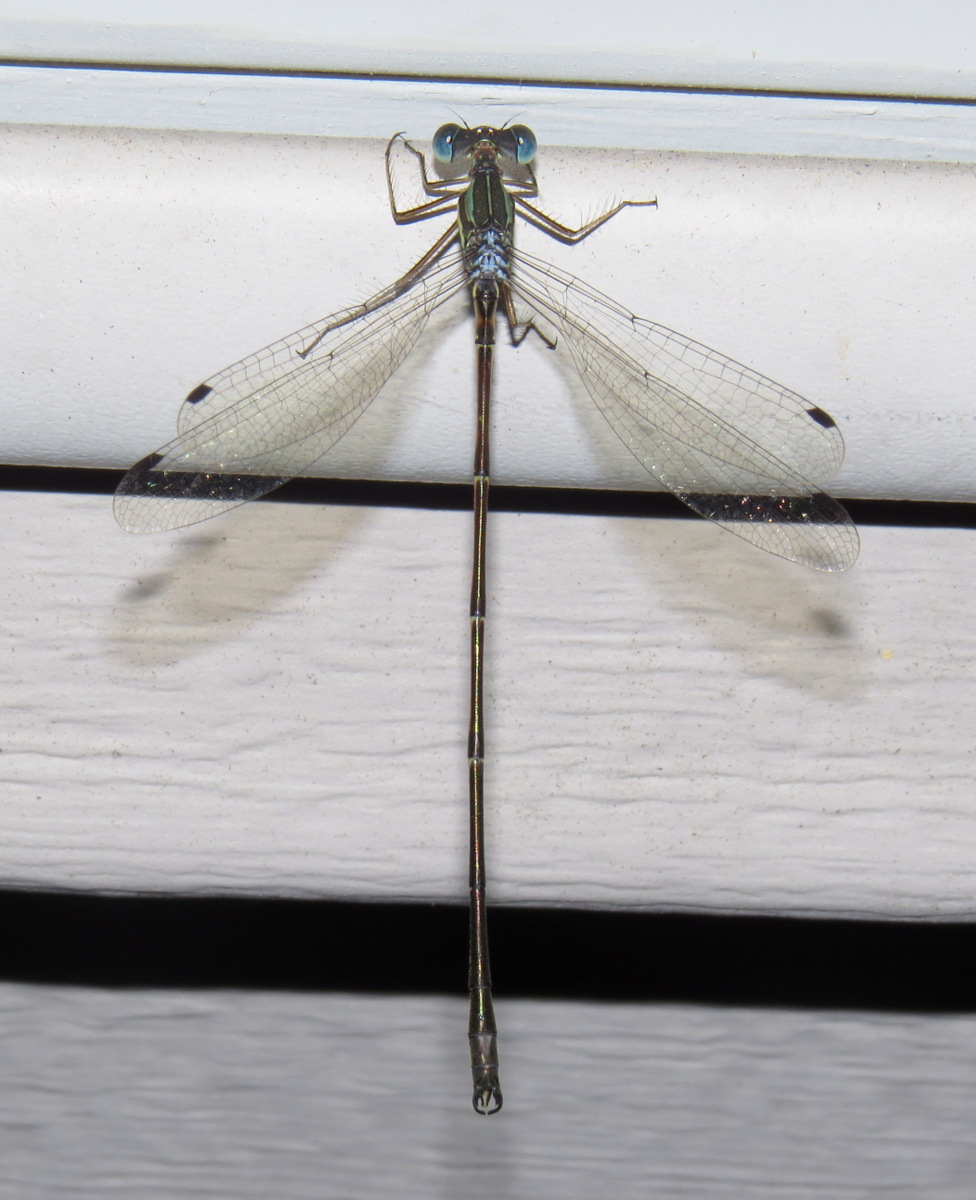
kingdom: Animalia
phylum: Arthropoda
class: Insecta
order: Odonata
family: Lestidae
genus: Lestes
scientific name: Lestes rectangularis
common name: Slender spreadwing
